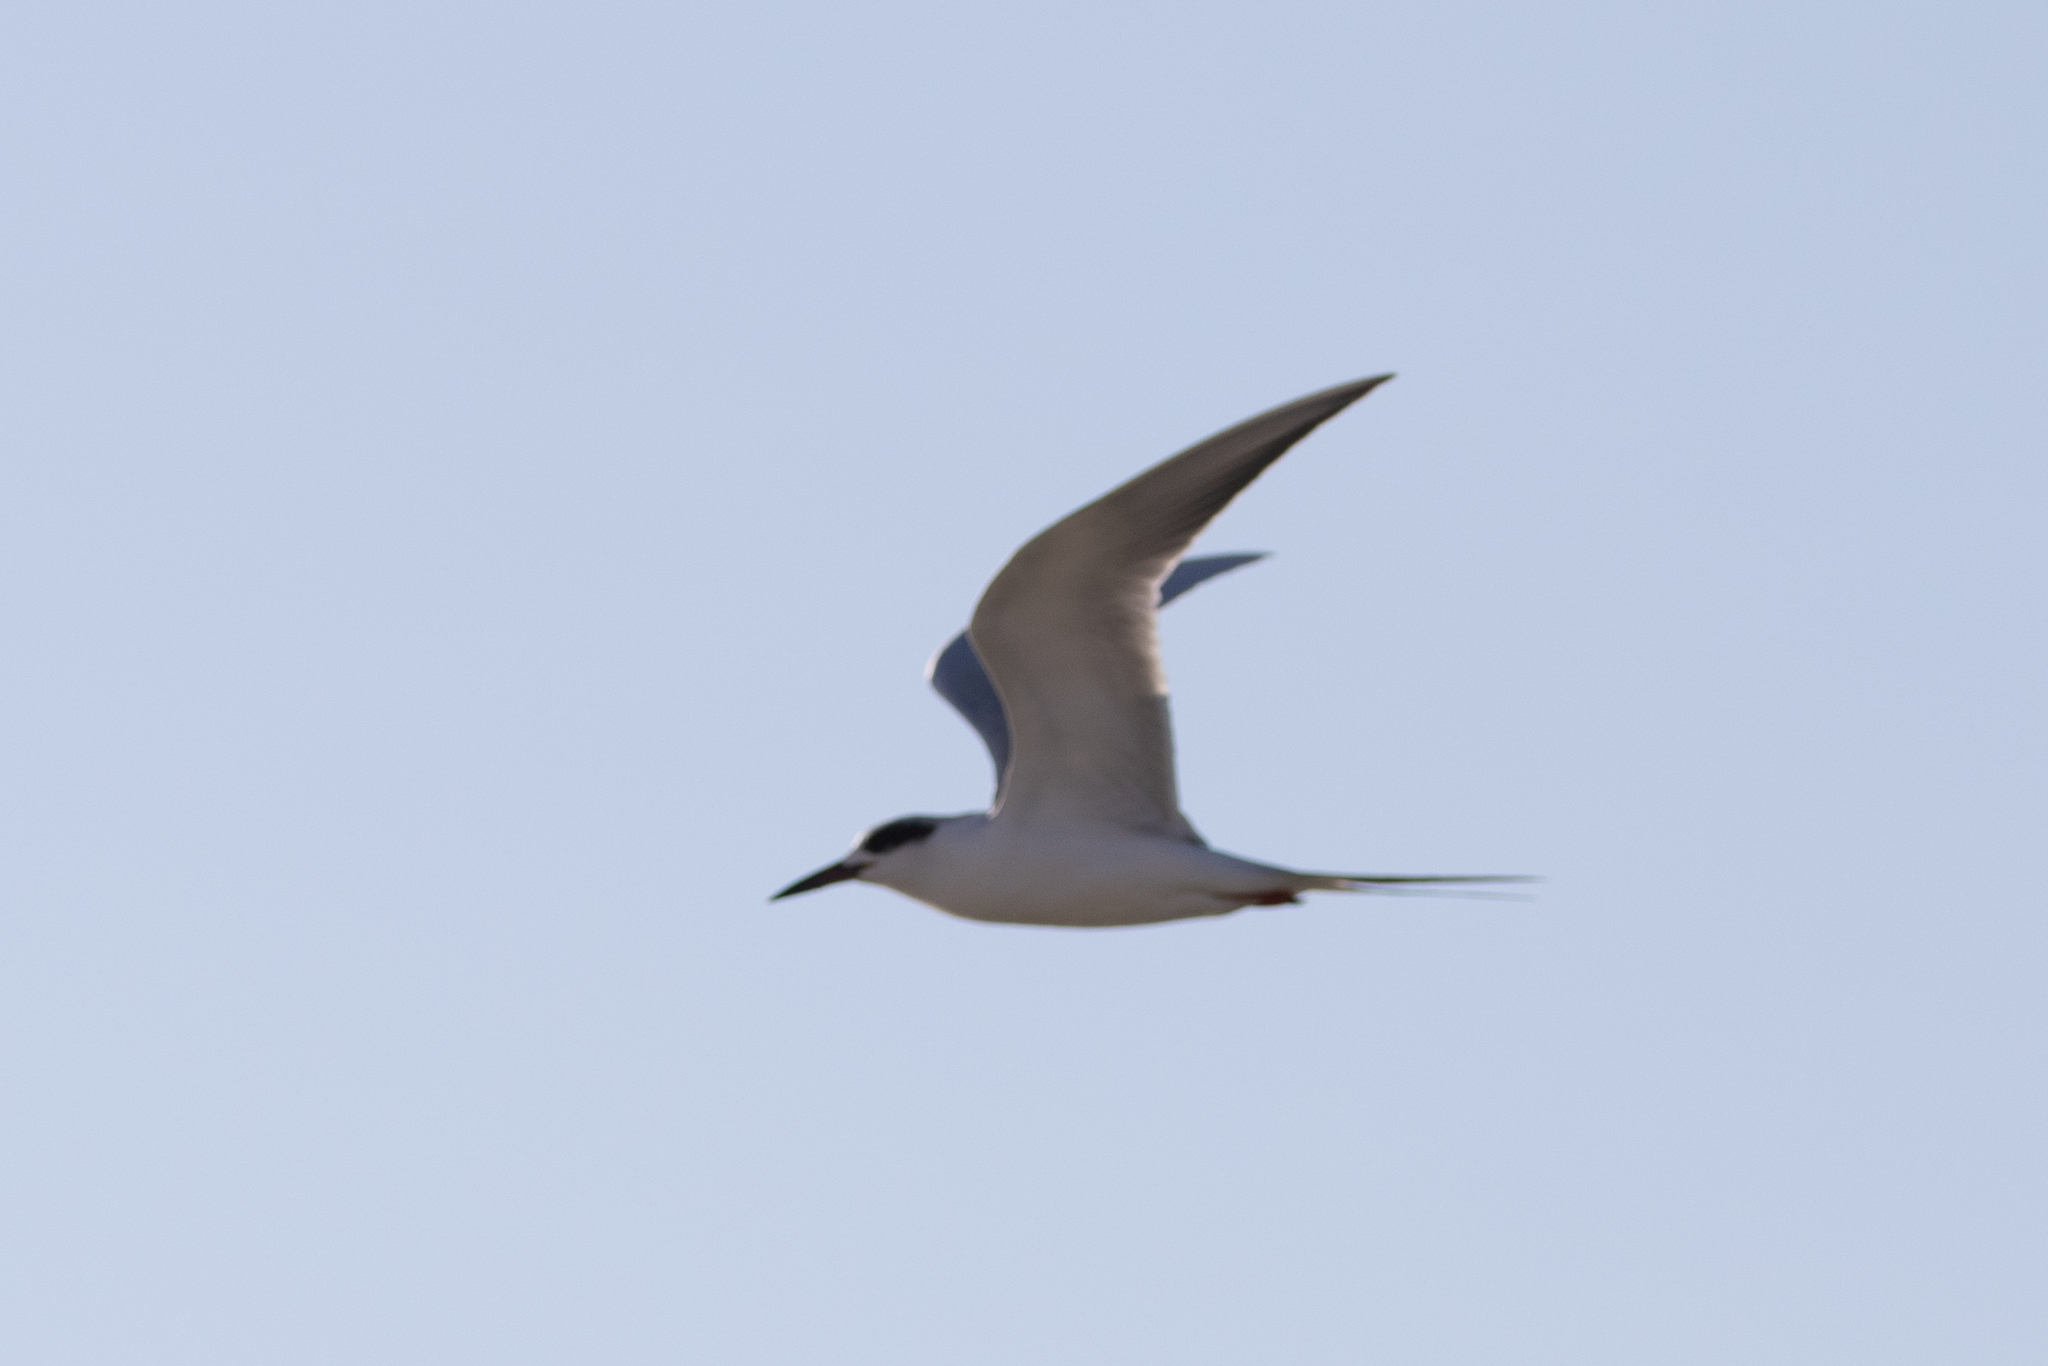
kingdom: Animalia
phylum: Chordata
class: Aves
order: Charadriiformes
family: Laridae
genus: Sterna
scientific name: Sterna forsteri
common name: Forster's tern
